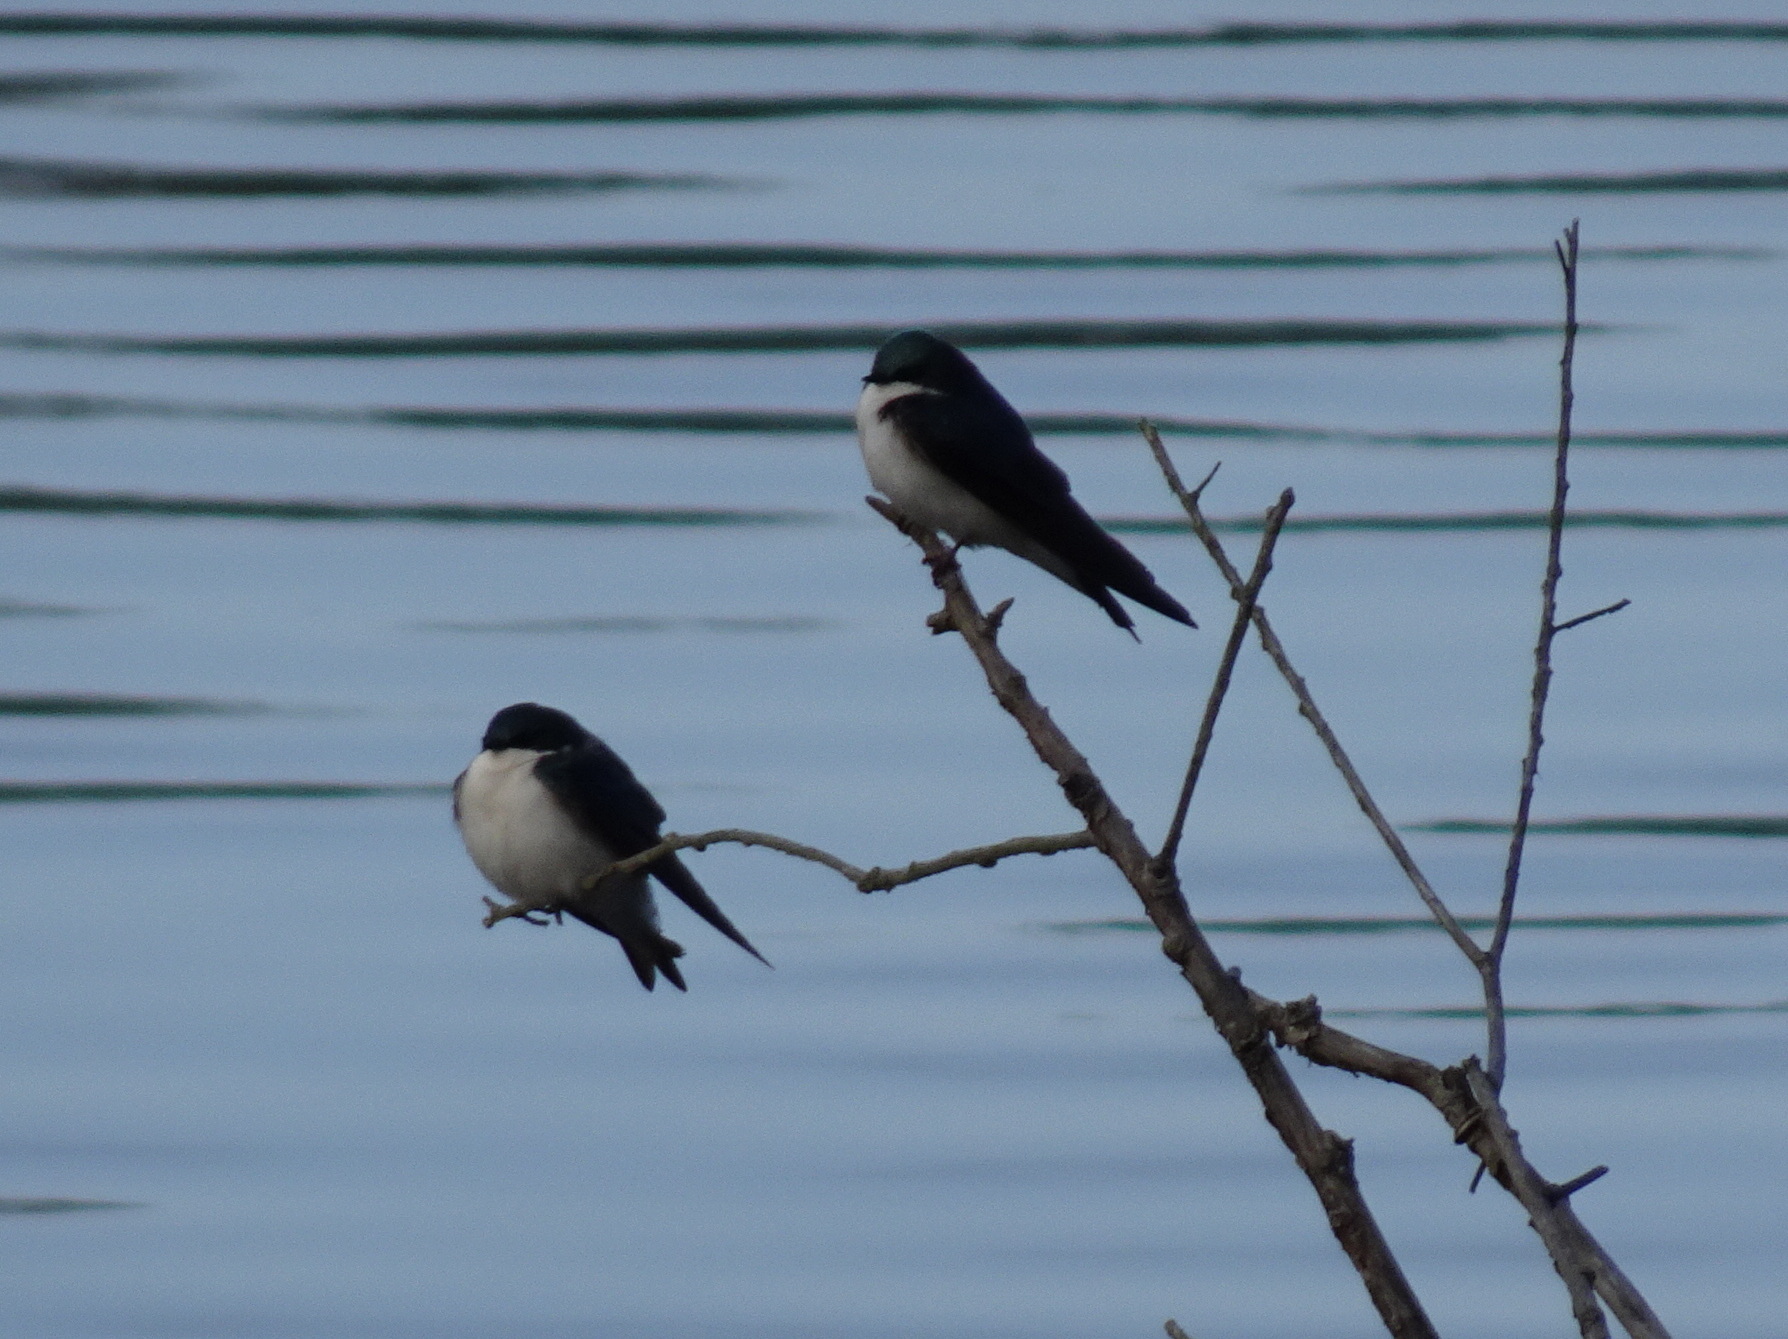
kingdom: Animalia
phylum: Chordata
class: Aves
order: Passeriformes
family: Hirundinidae
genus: Tachycineta
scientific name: Tachycineta bicolor
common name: Tree swallow
